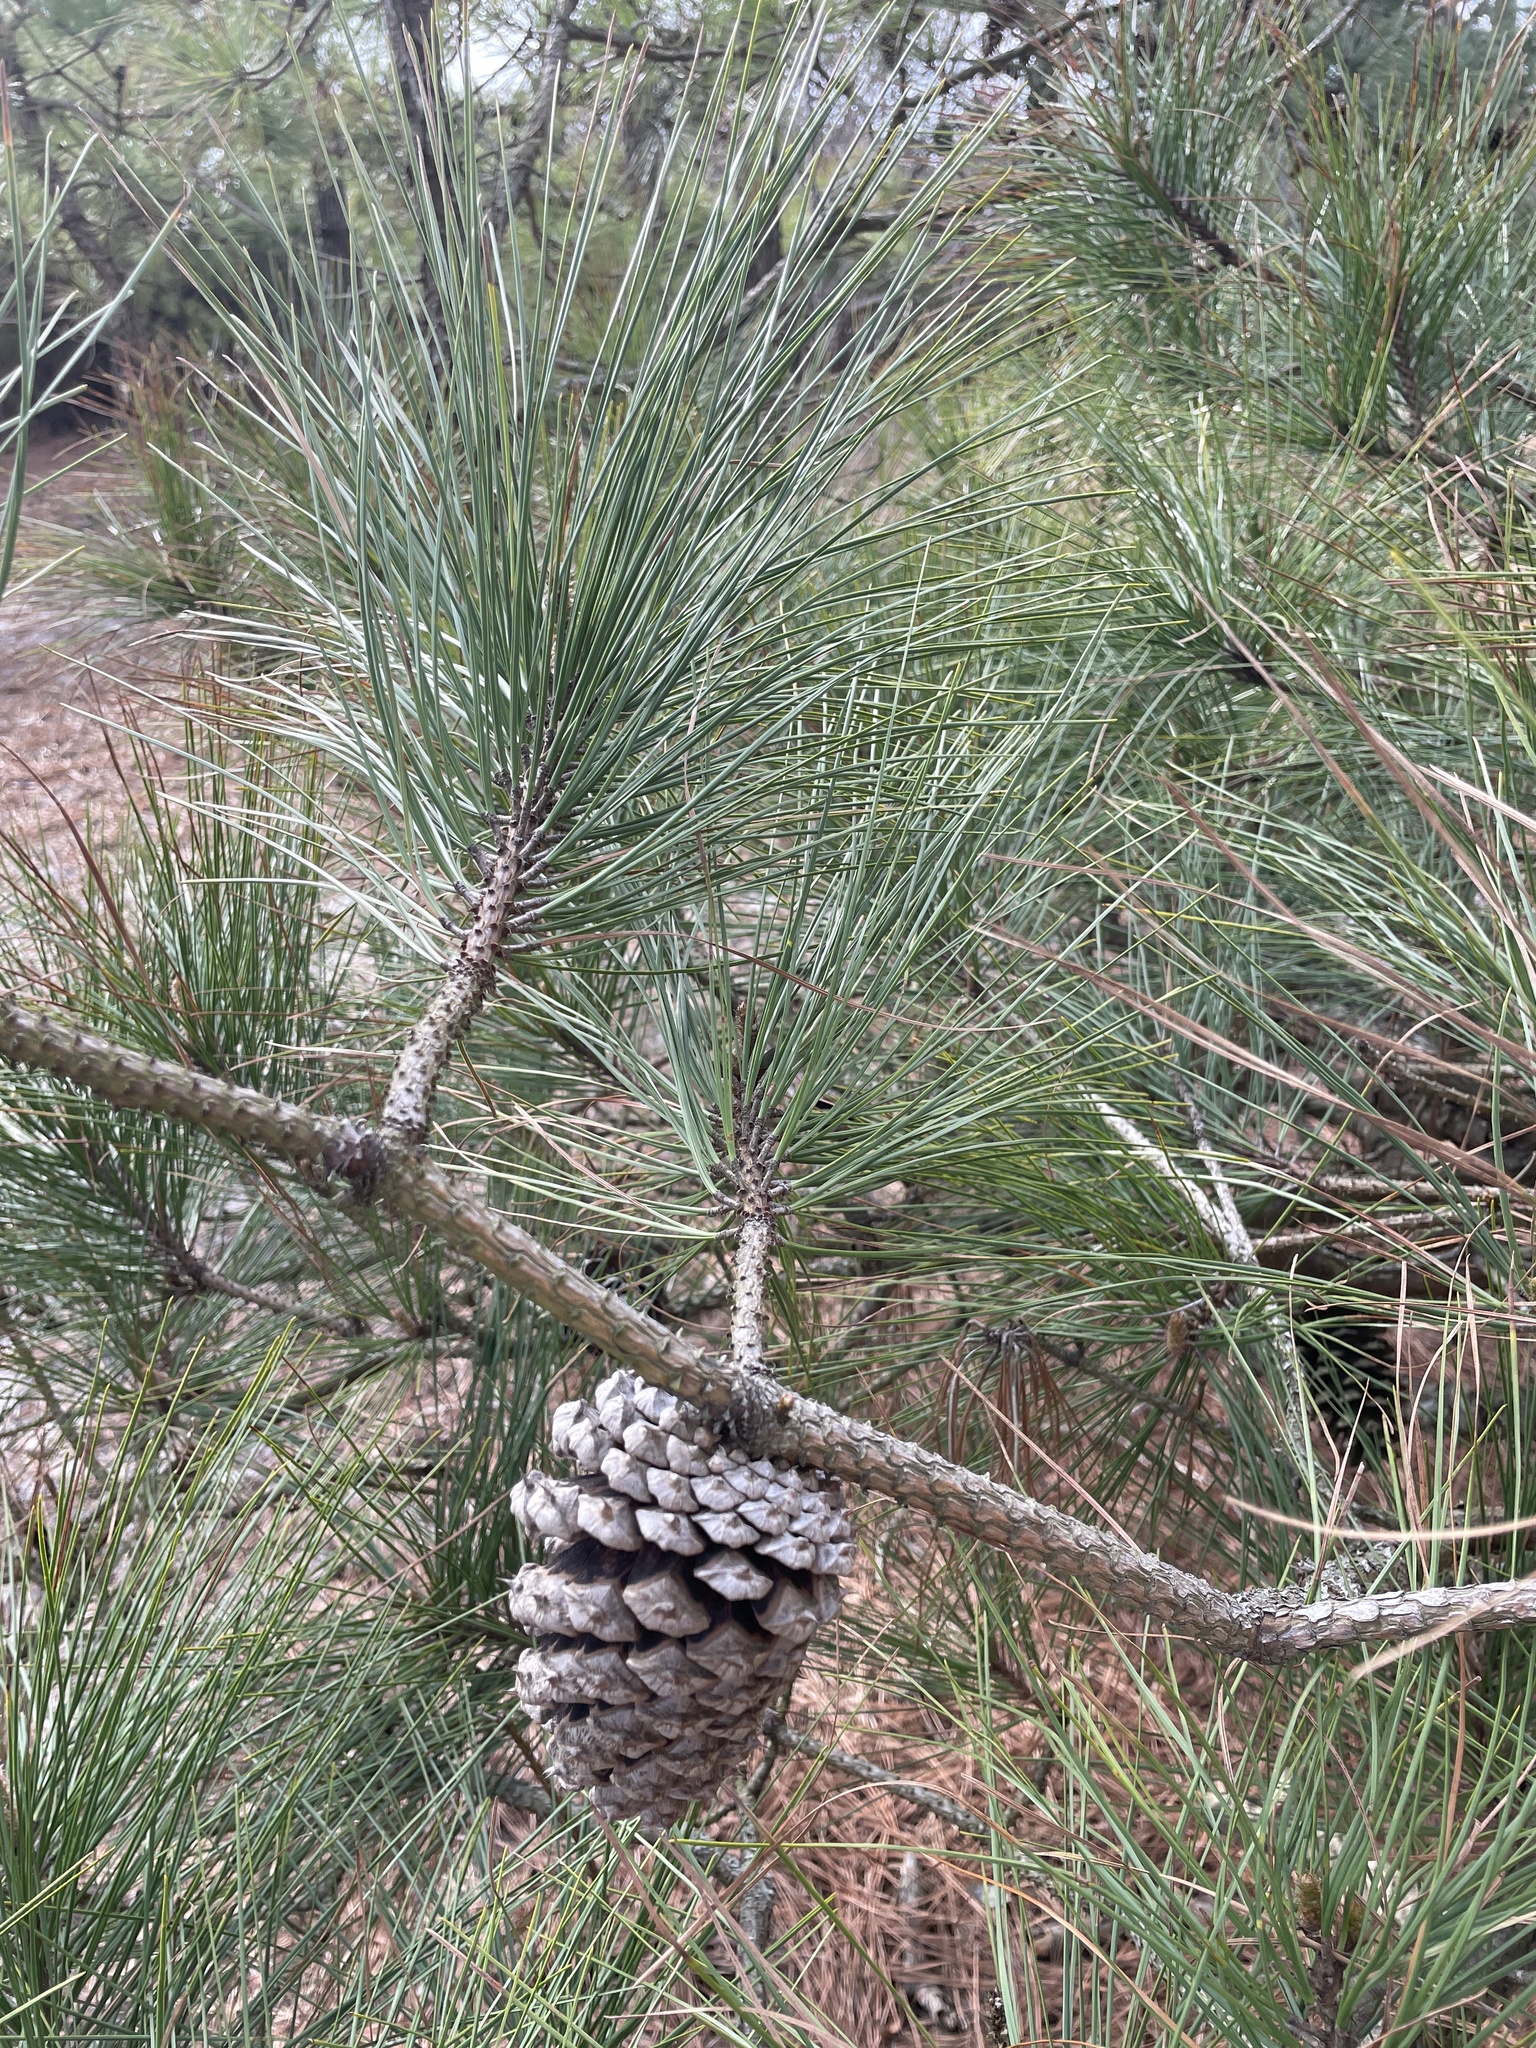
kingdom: Plantae
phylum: Tracheophyta
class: Pinopsida
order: Pinales
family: Pinaceae
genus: Pinus
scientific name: Pinus taeda
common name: Loblolly pine
